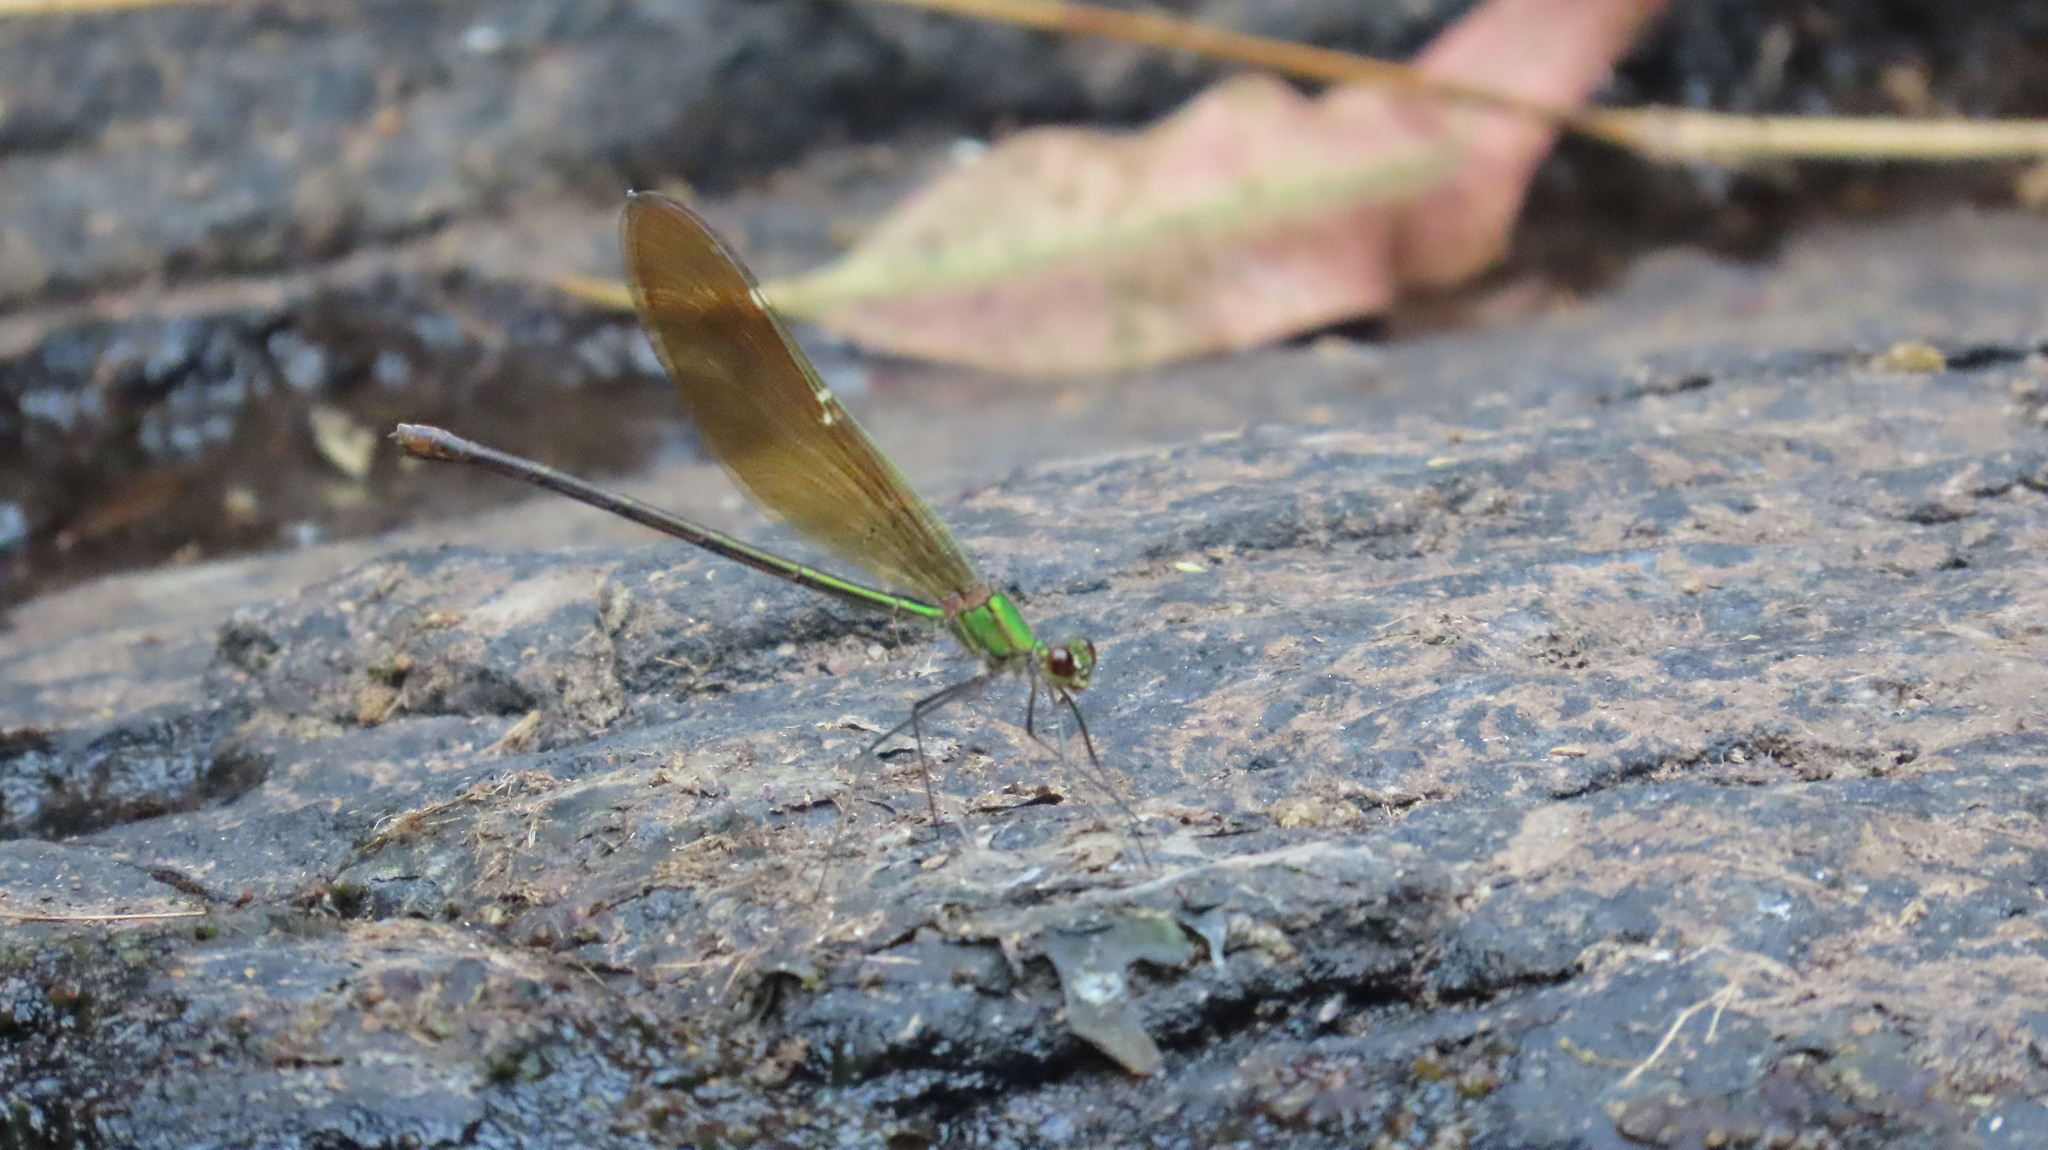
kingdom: Animalia
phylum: Arthropoda
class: Insecta
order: Odonata
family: Calopterygidae
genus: Neurobasis
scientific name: Neurobasis chinensis
